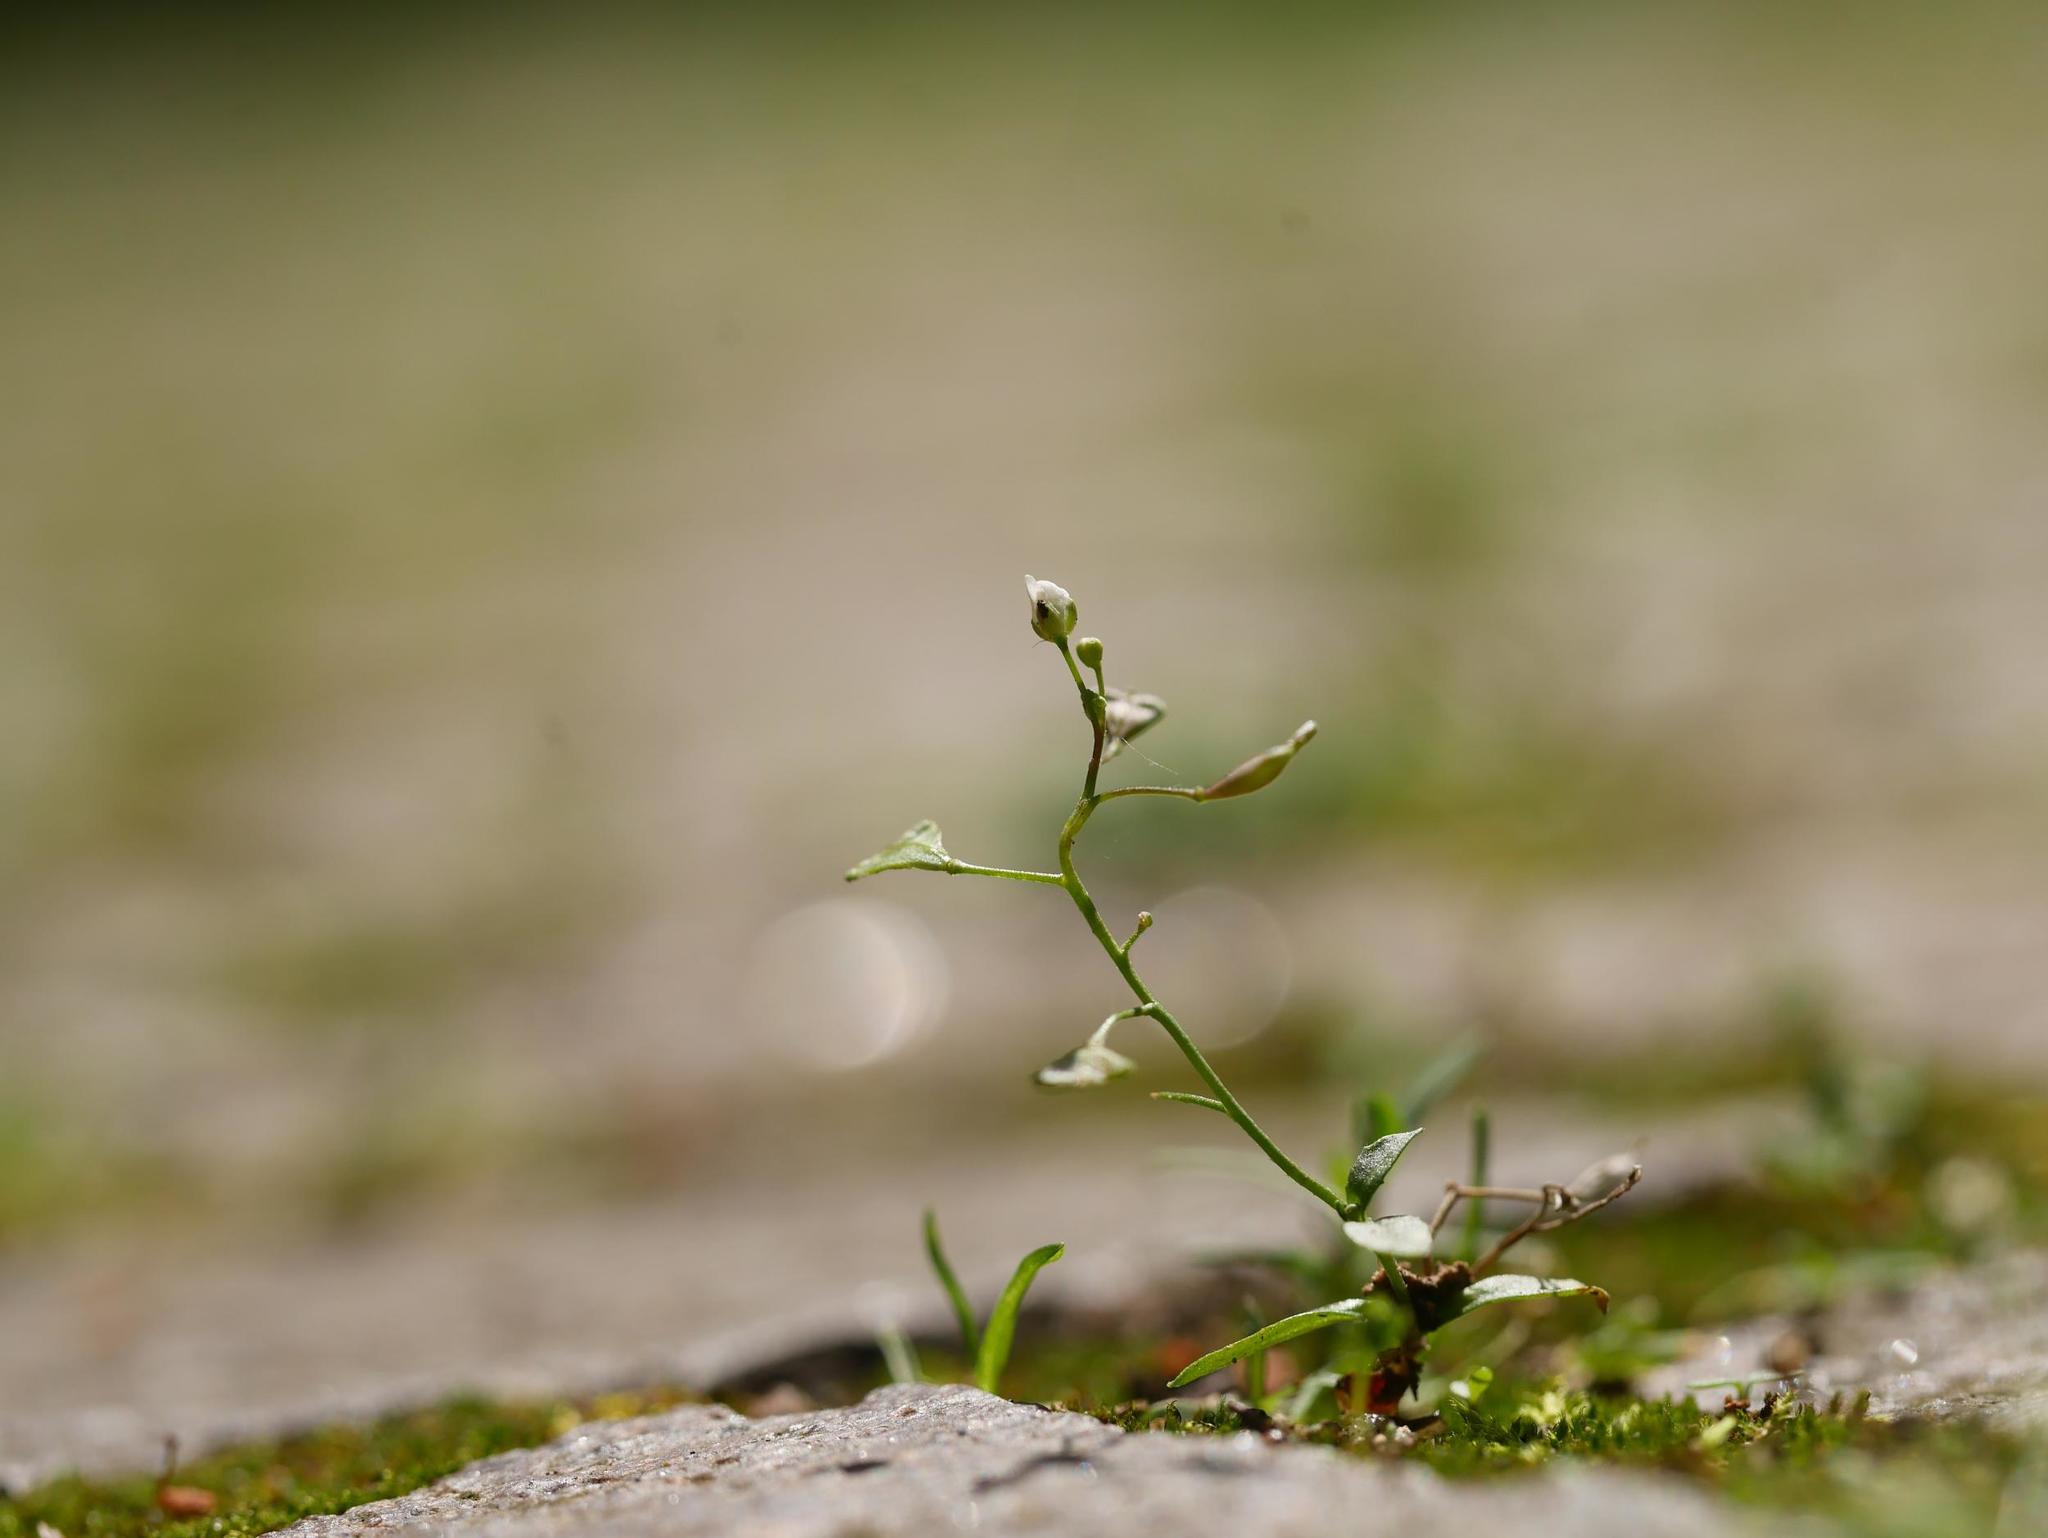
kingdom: Plantae
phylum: Tracheophyta
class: Magnoliopsida
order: Brassicales
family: Brassicaceae
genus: Capsella
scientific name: Capsella bursa-pastoris
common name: Shepherd's purse
